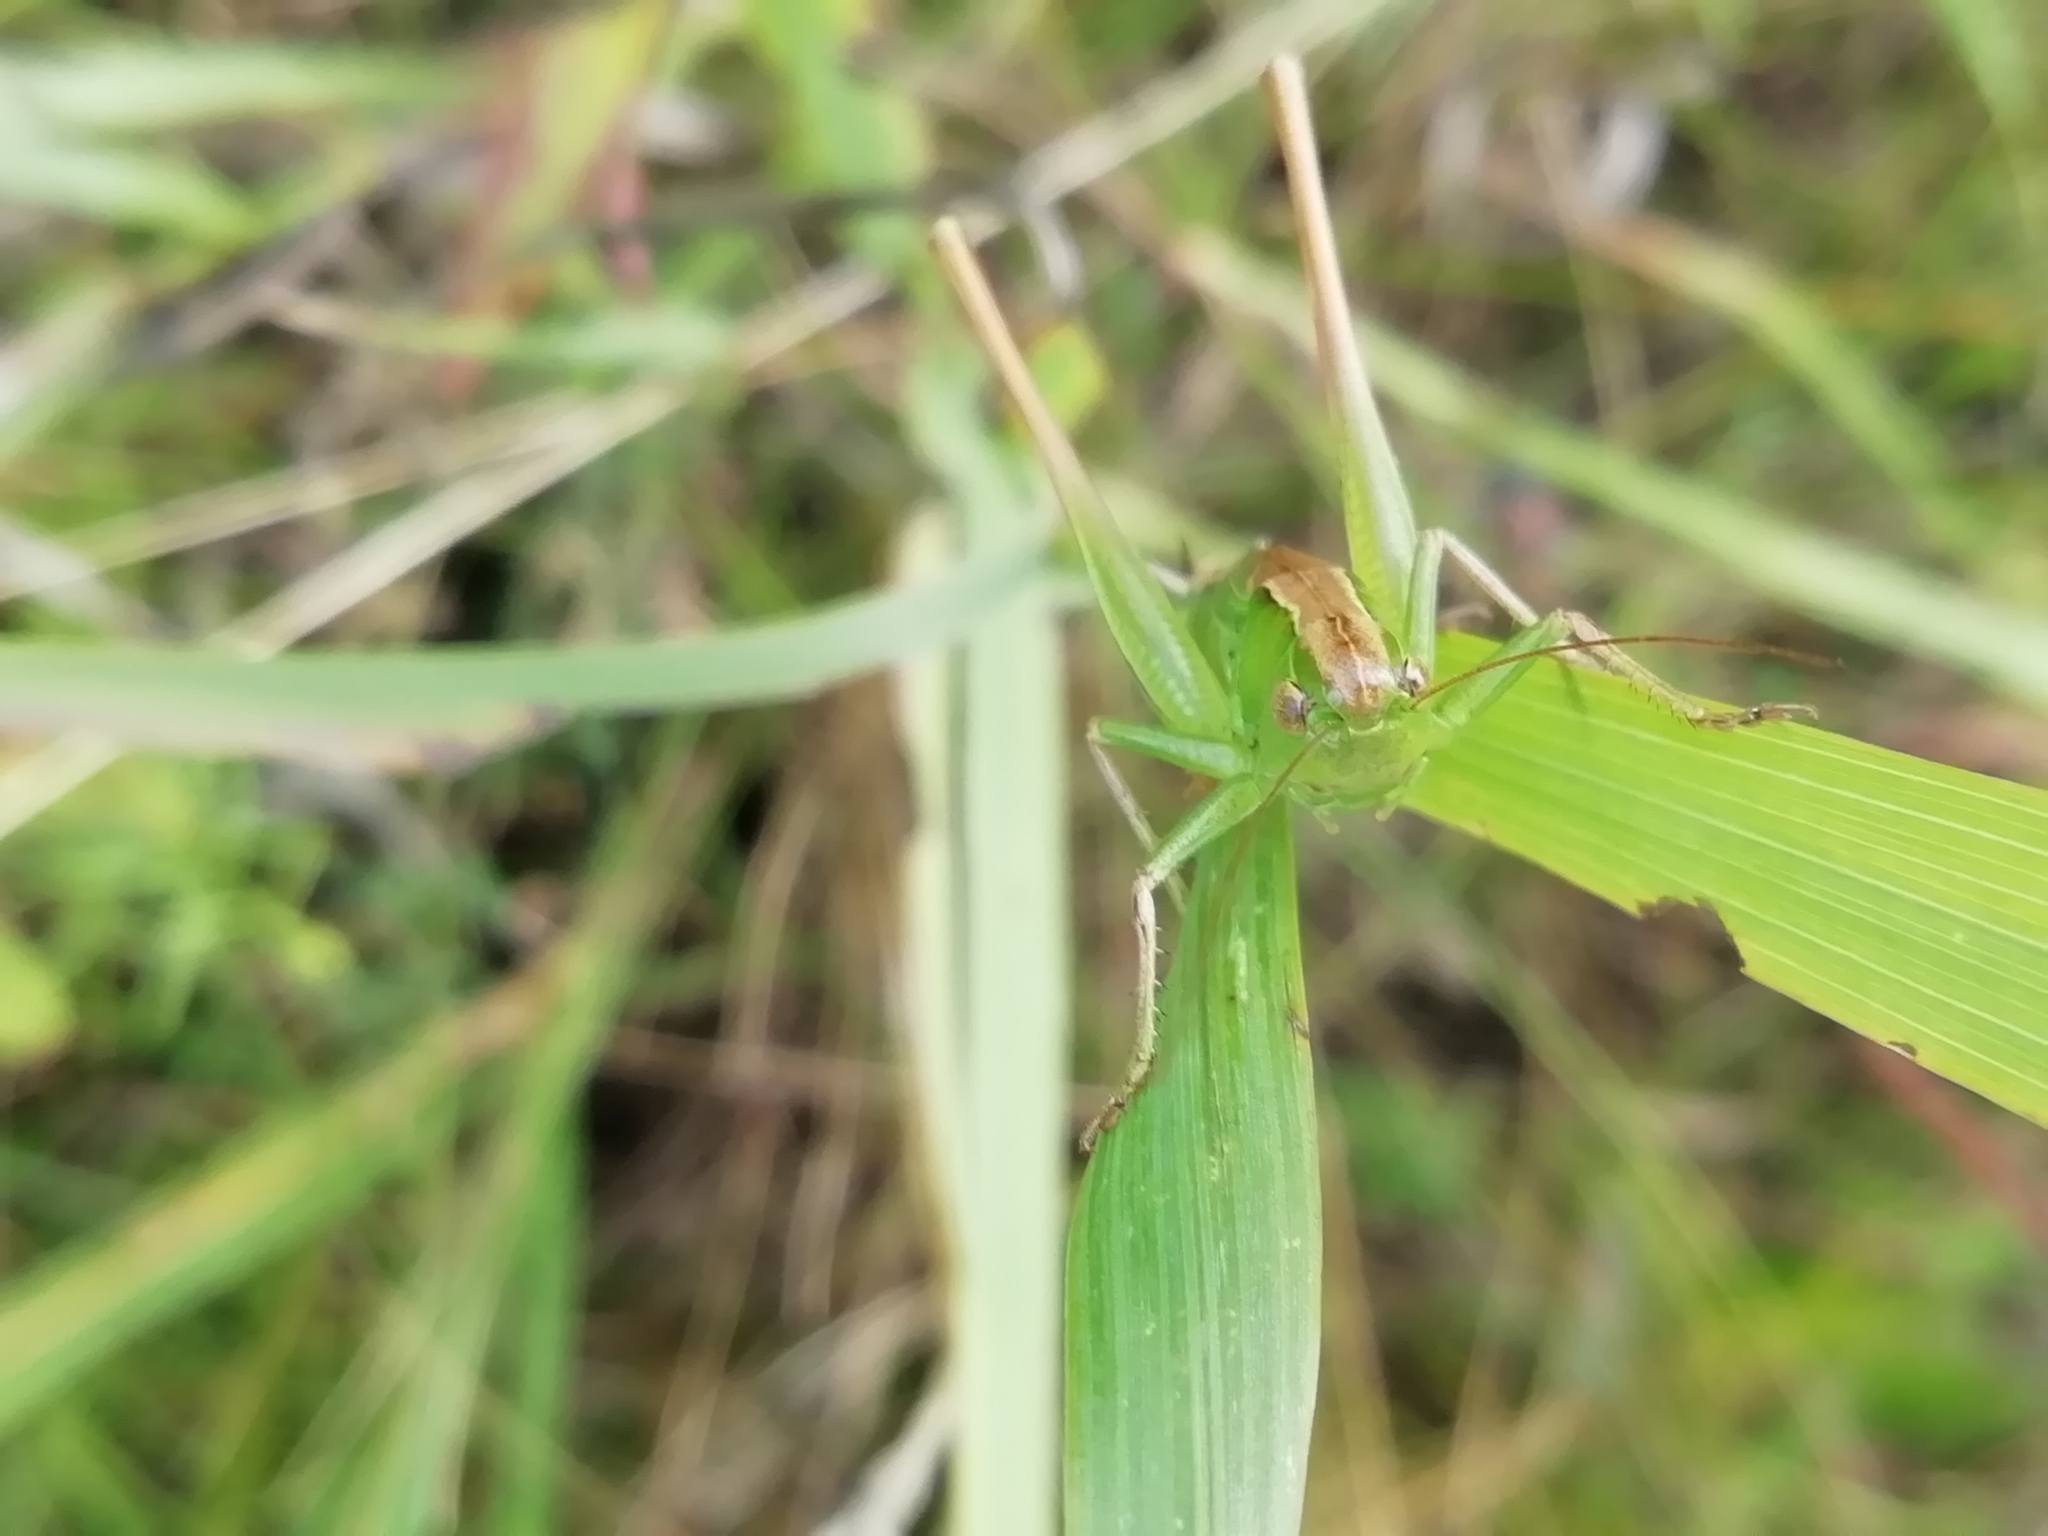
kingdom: Animalia
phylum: Arthropoda
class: Insecta
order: Orthoptera
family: Tettigoniidae
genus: Bicolorana
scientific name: Bicolorana bicolor
